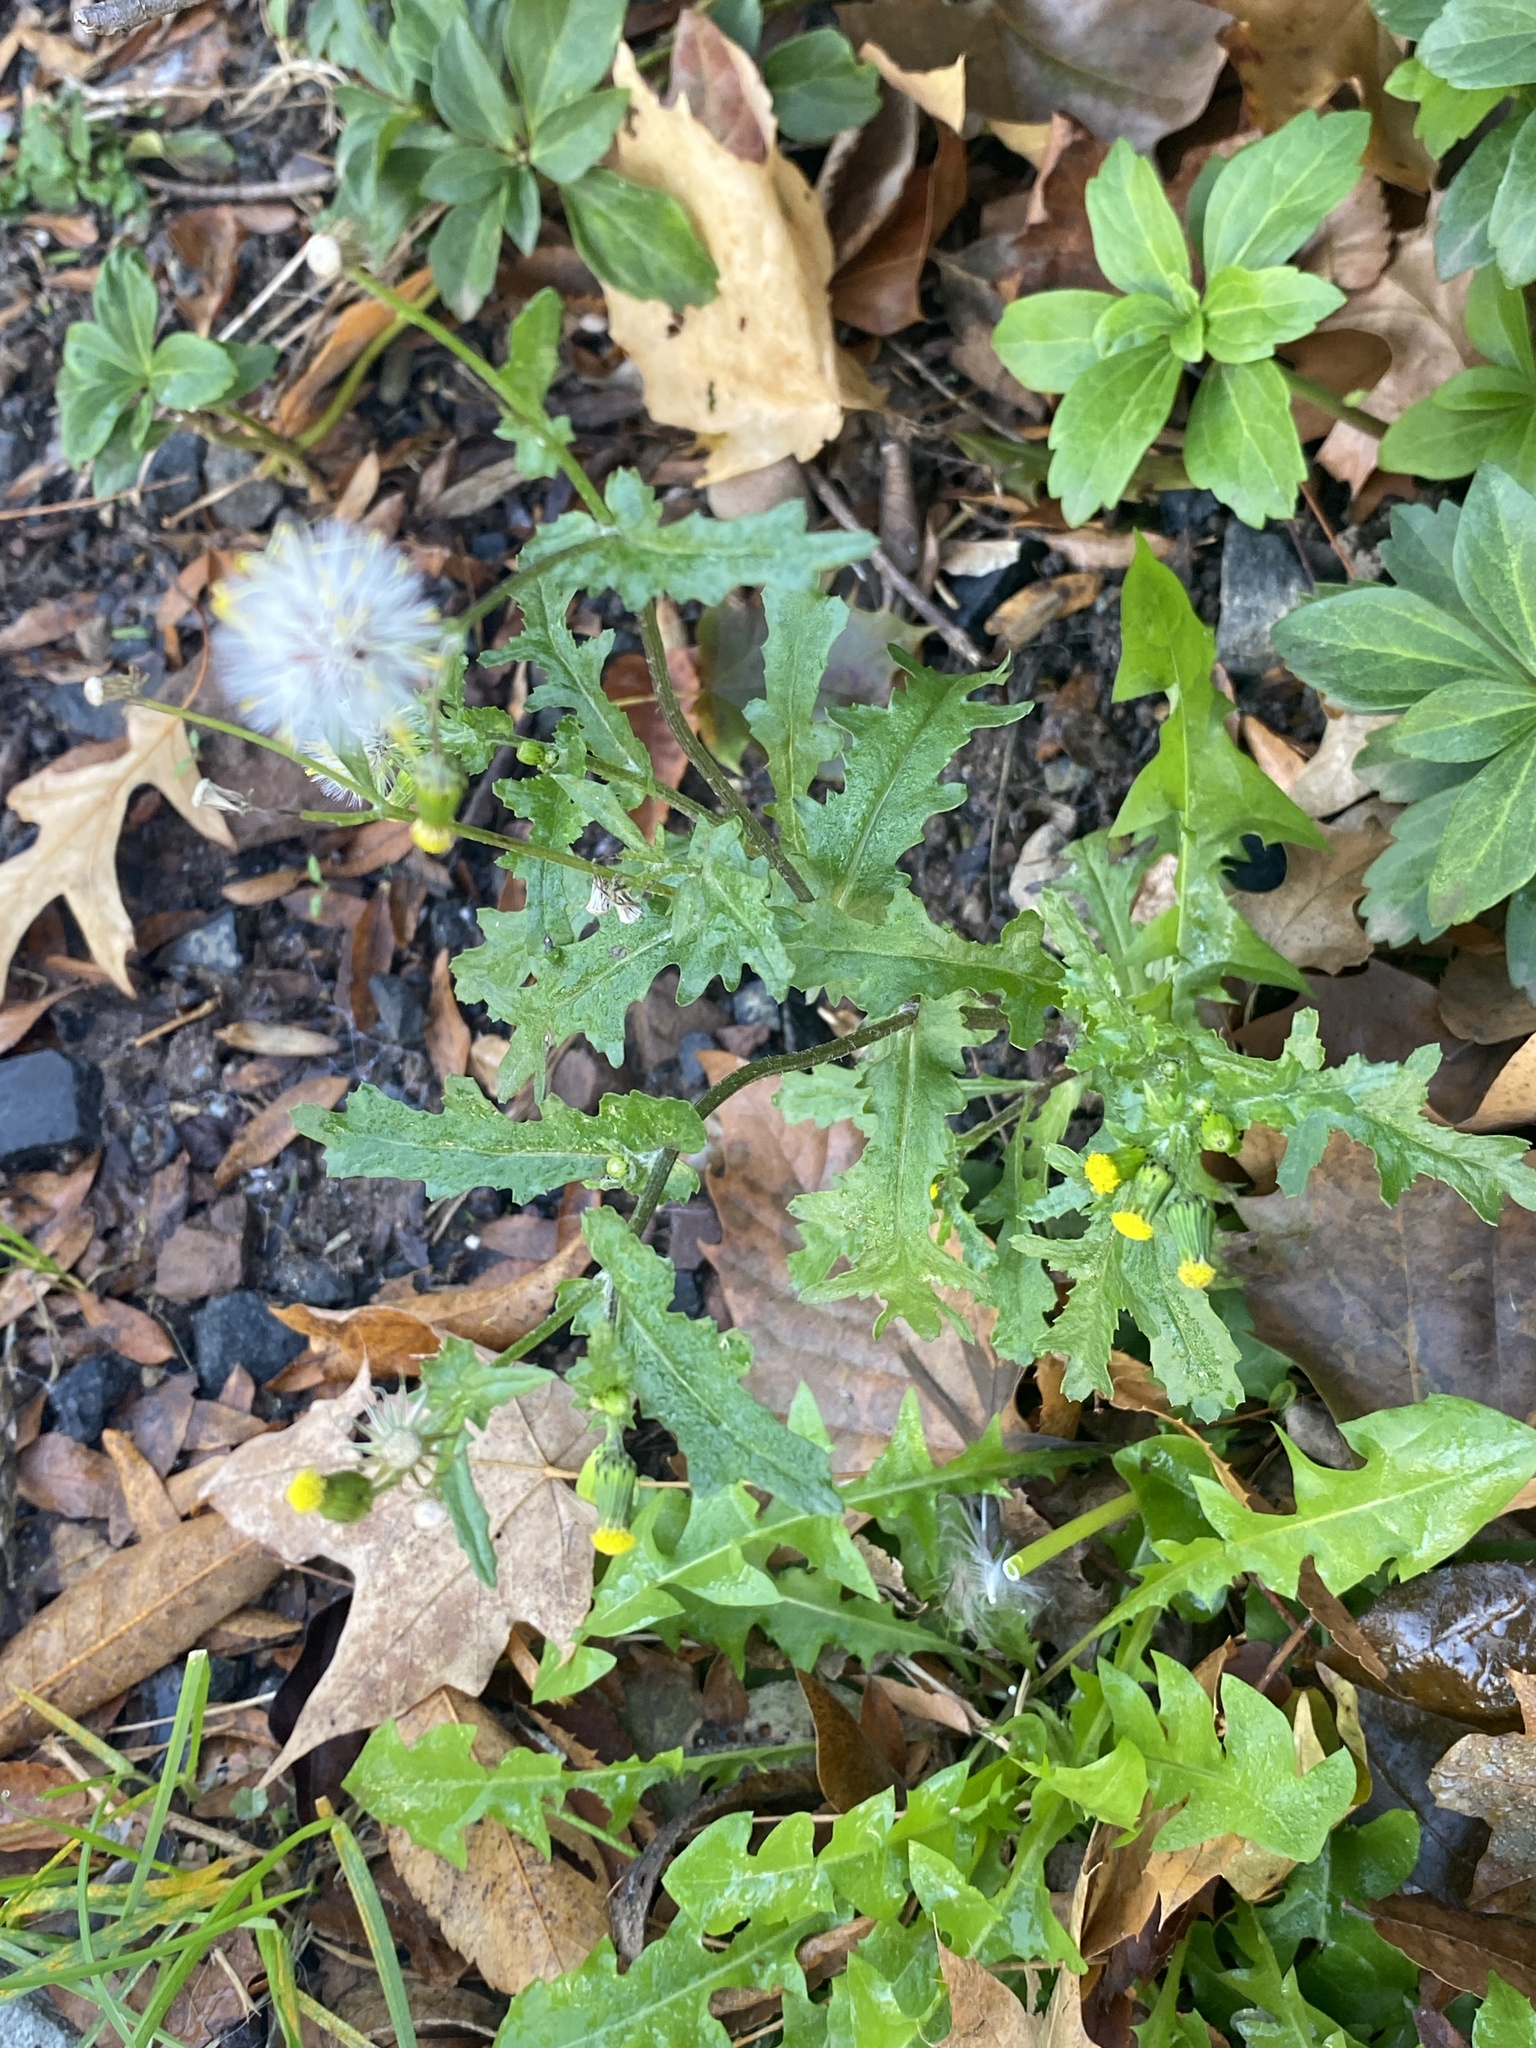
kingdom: Plantae
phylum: Tracheophyta
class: Magnoliopsida
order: Asterales
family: Asteraceae
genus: Senecio
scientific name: Senecio vulgaris
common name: Old-man-in-the-spring
